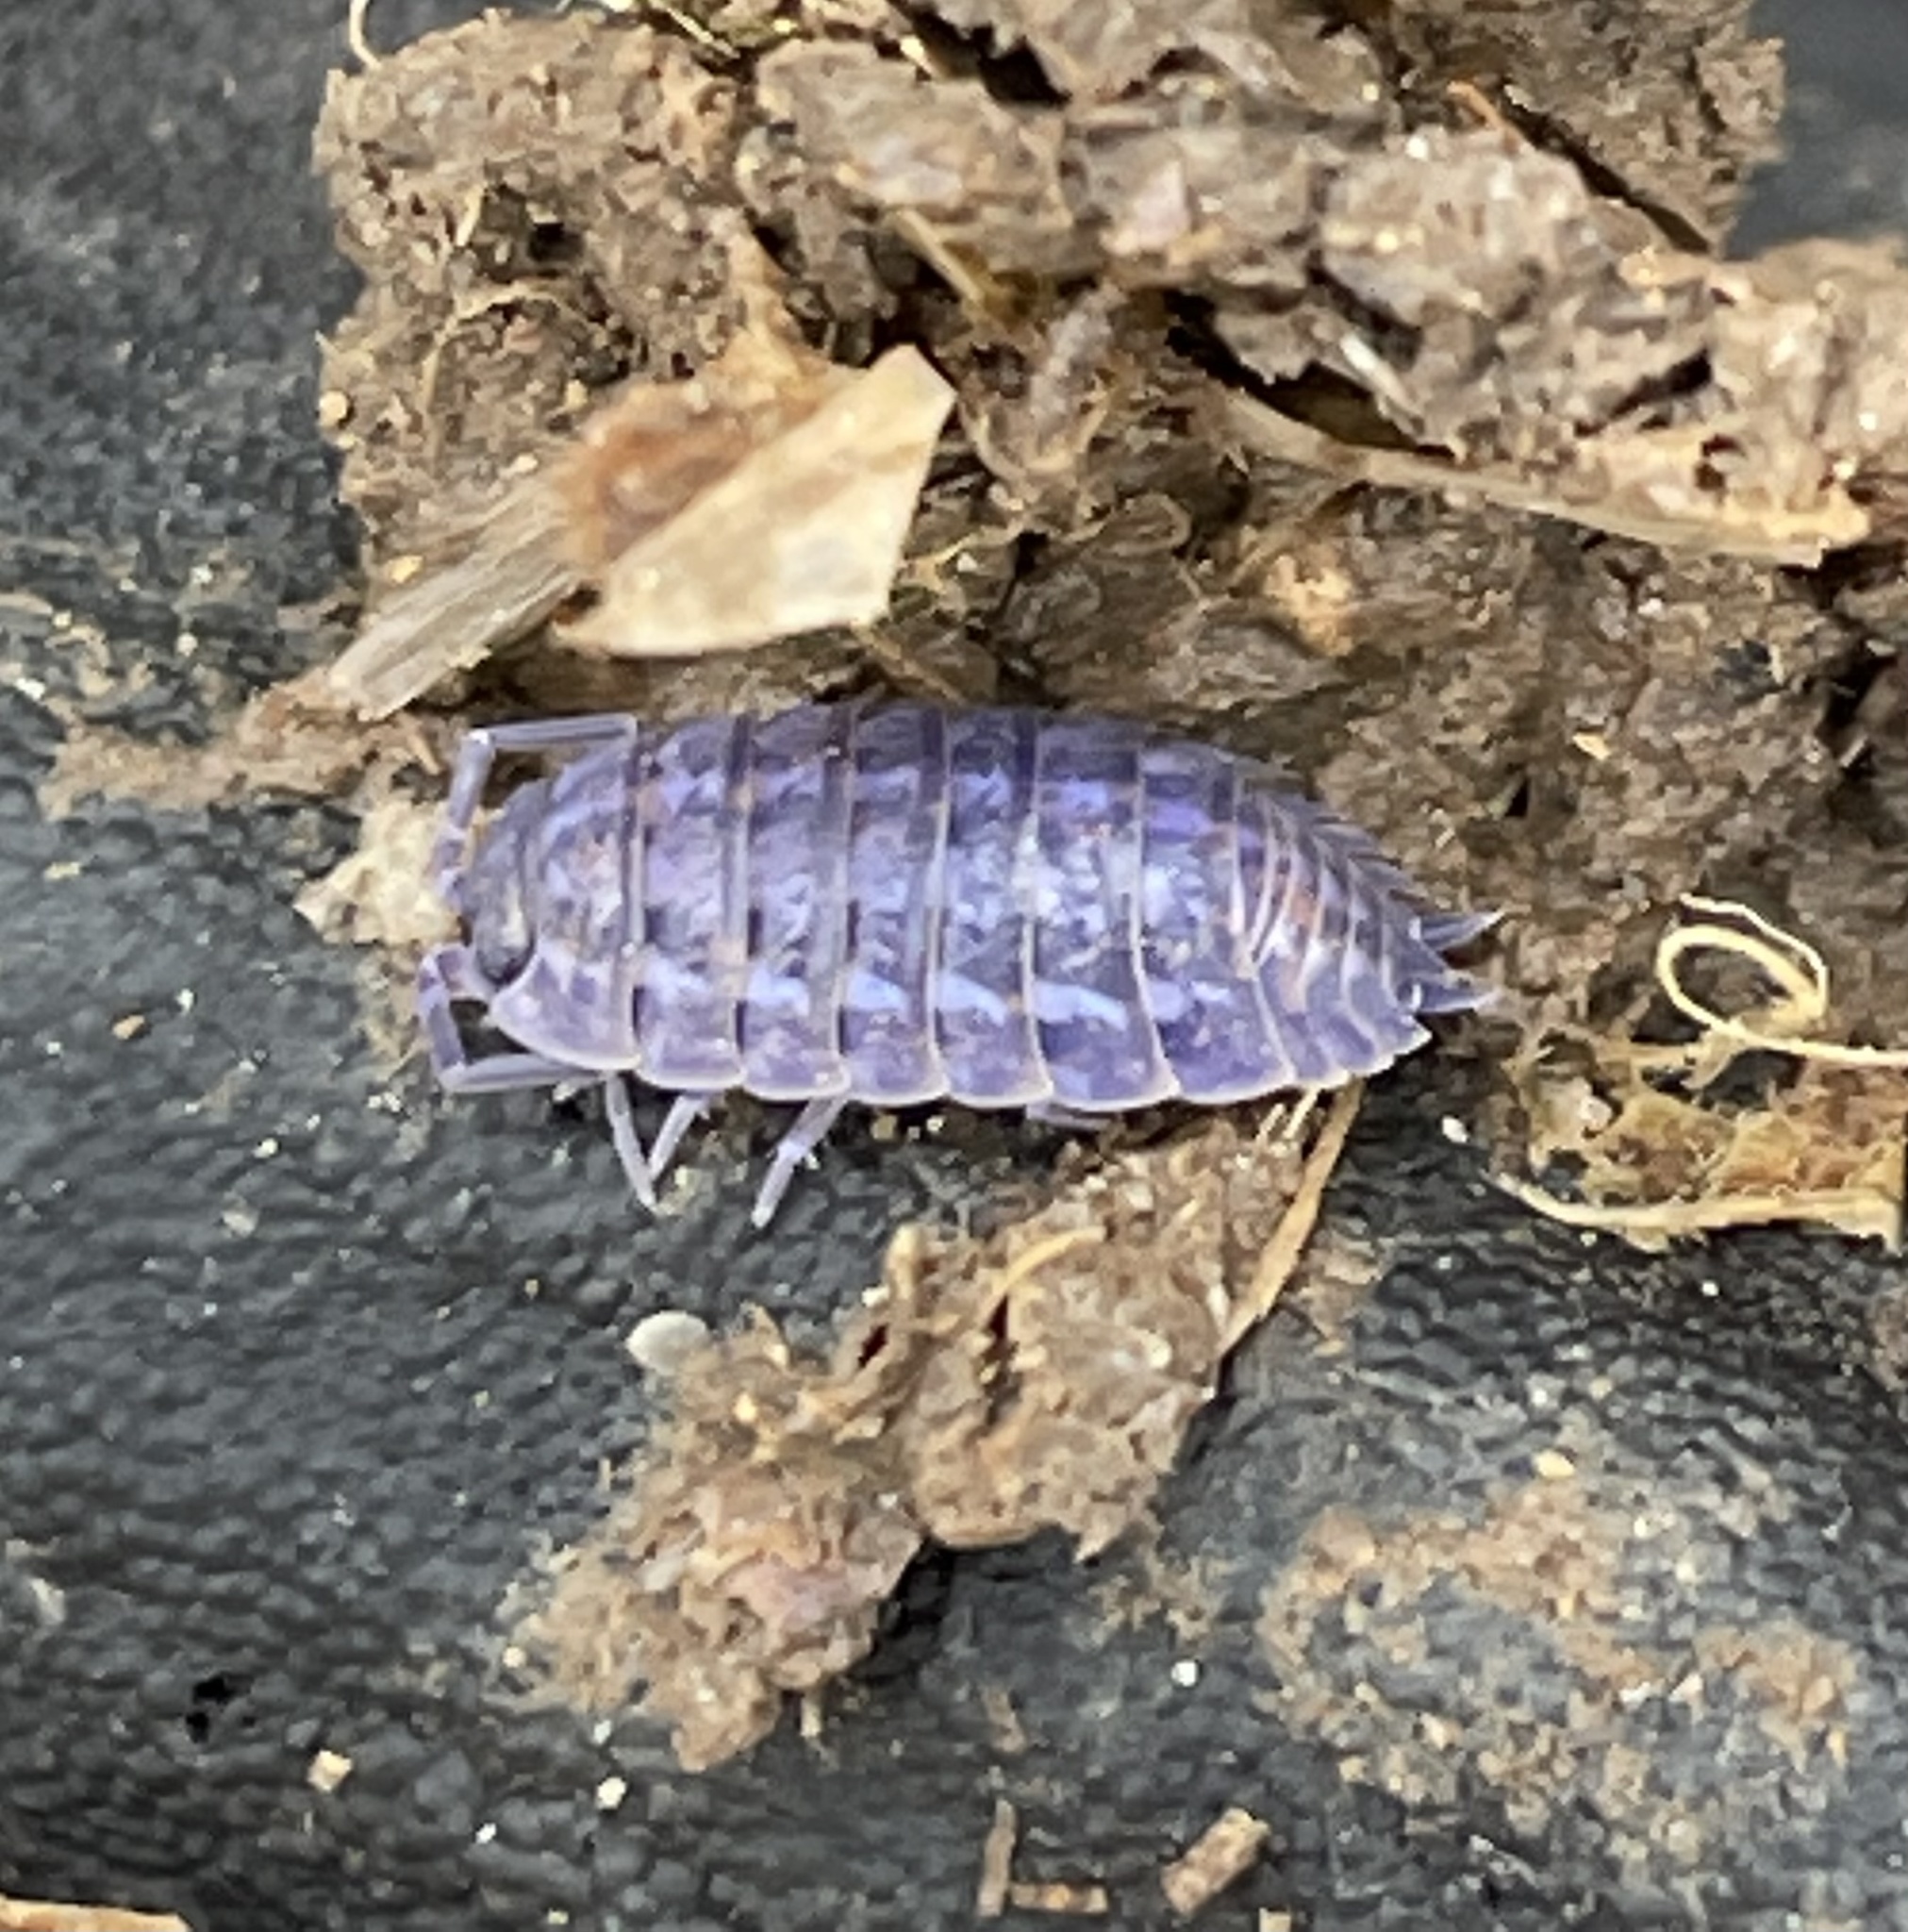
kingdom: Viruses
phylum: Nucleocytoviricota
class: Megaviricetes
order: Pimascovirales
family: Iridoviridae
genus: Iridovirus
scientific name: Iridovirus Invertebrate iridescent virus 31
